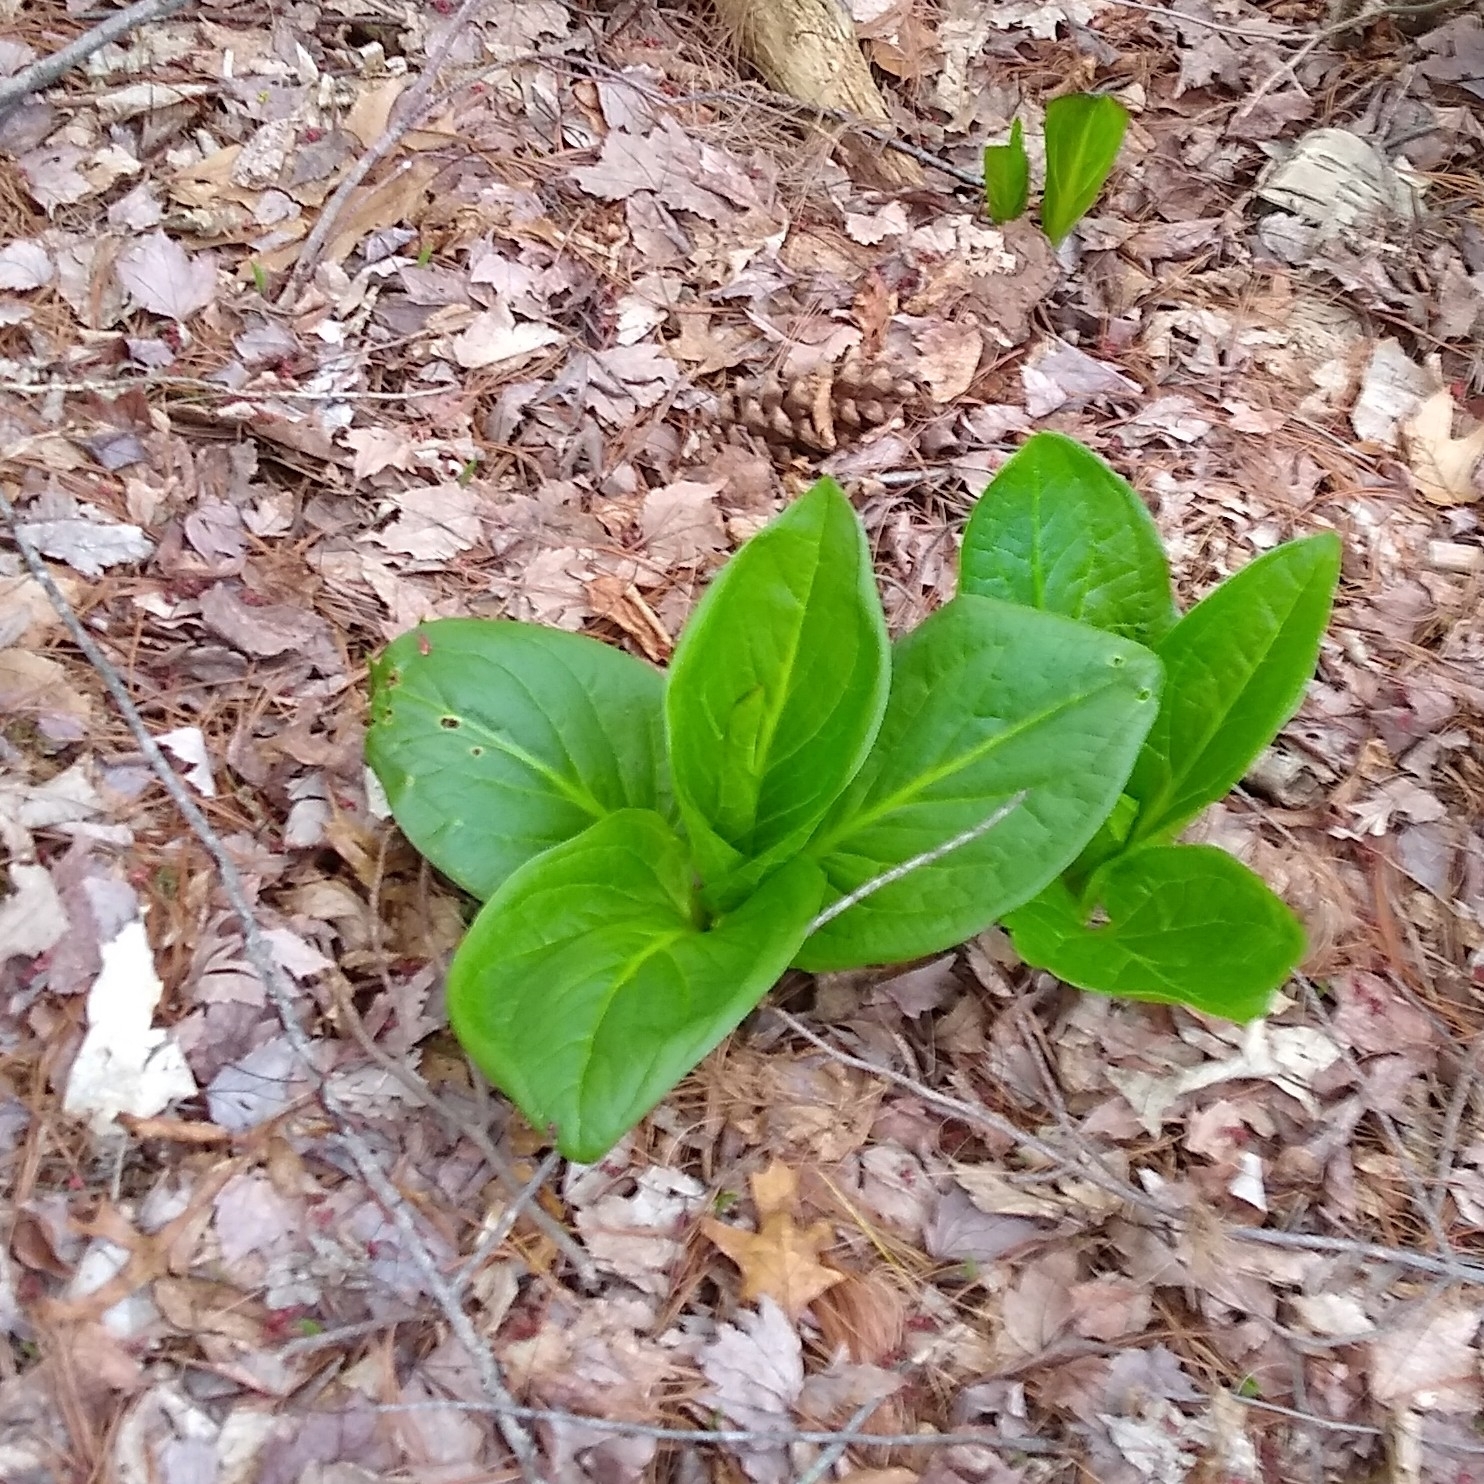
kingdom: Plantae
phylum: Tracheophyta
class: Liliopsida
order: Alismatales
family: Araceae
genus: Symplocarpus
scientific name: Symplocarpus foetidus
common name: Eastern skunk cabbage
